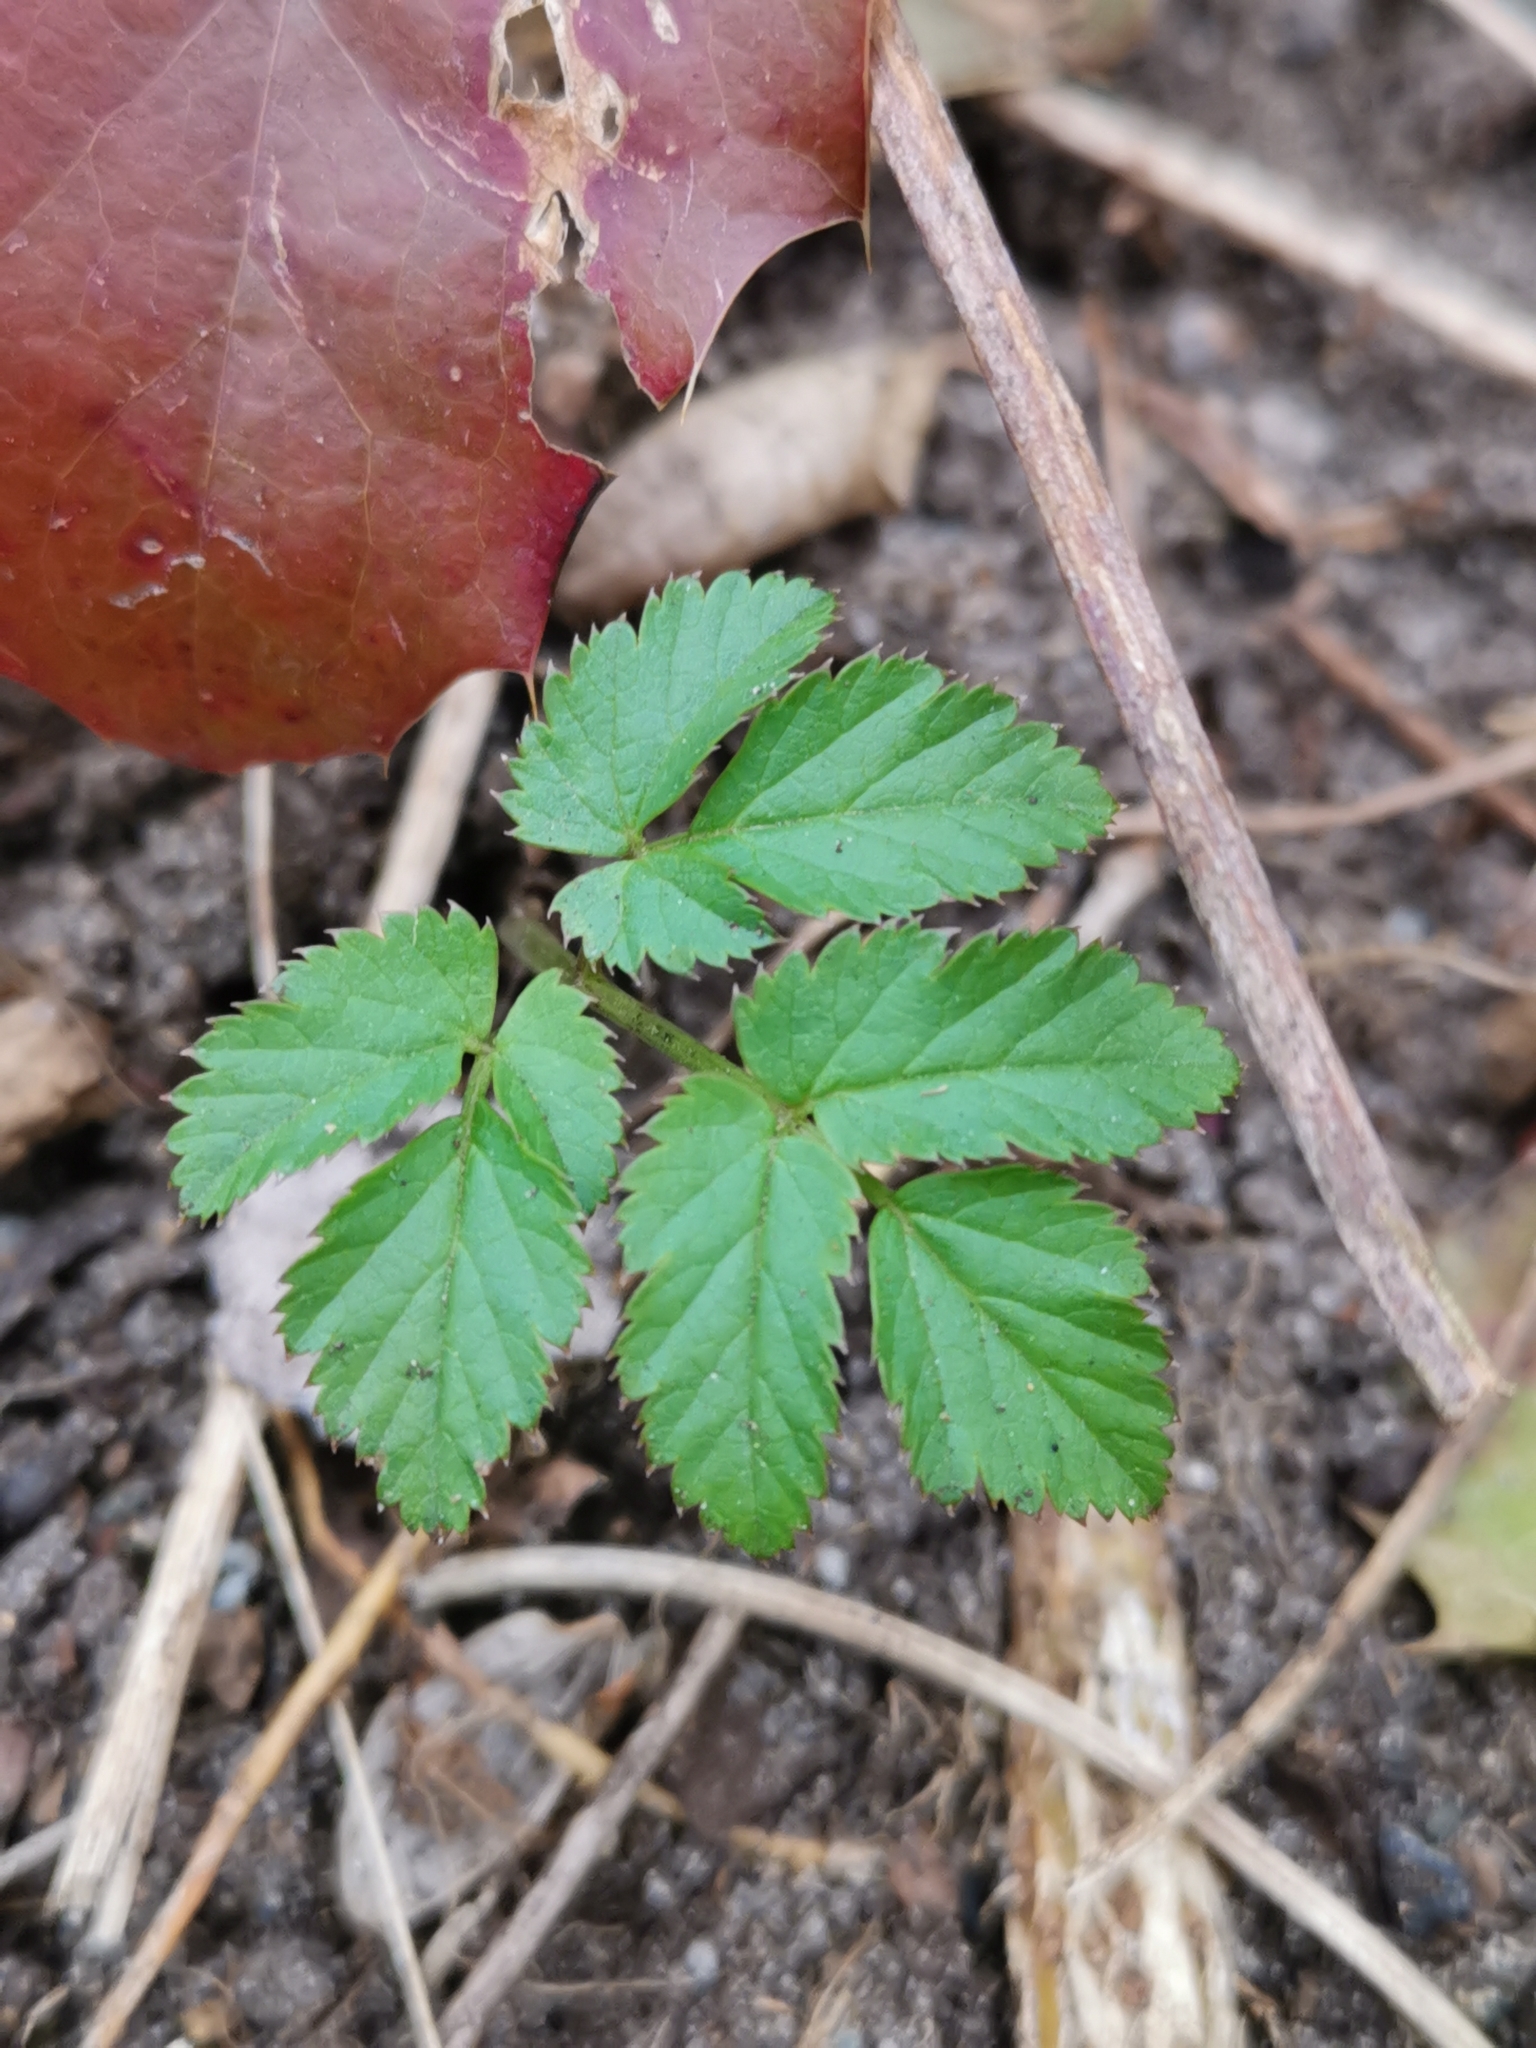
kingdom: Plantae
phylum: Tracheophyta
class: Magnoliopsida
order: Apiales
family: Apiaceae
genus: Aegopodium
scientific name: Aegopodium podagraria
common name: Ground-elder
